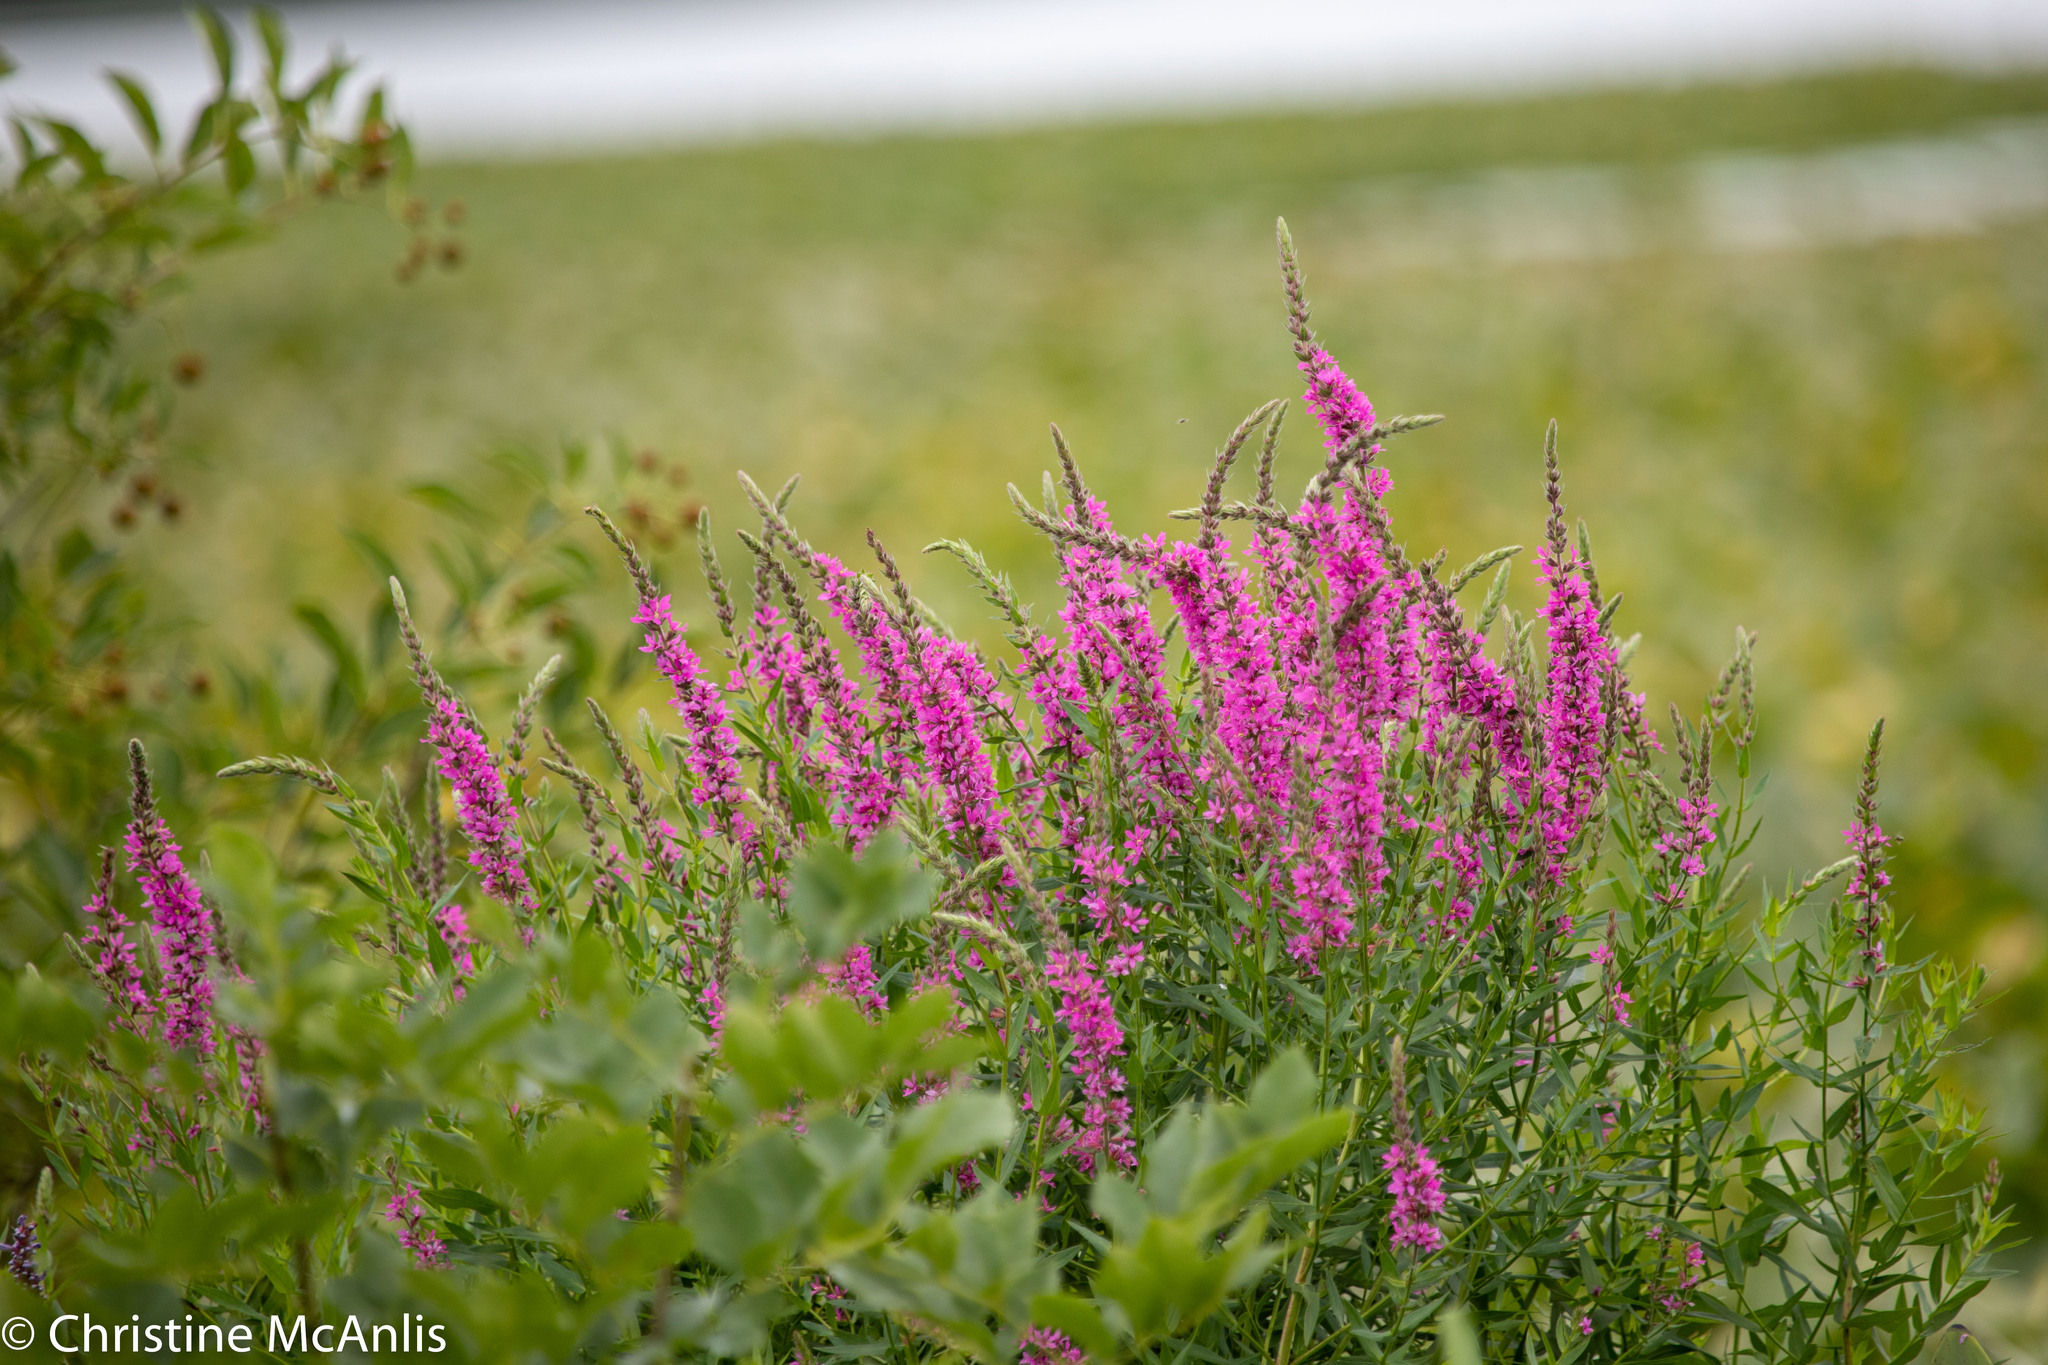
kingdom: Plantae
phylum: Tracheophyta
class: Magnoliopsida
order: Myrtales
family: Lythraceae
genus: Lythrum
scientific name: Lythrum salicaria
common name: Purple loosestrife
